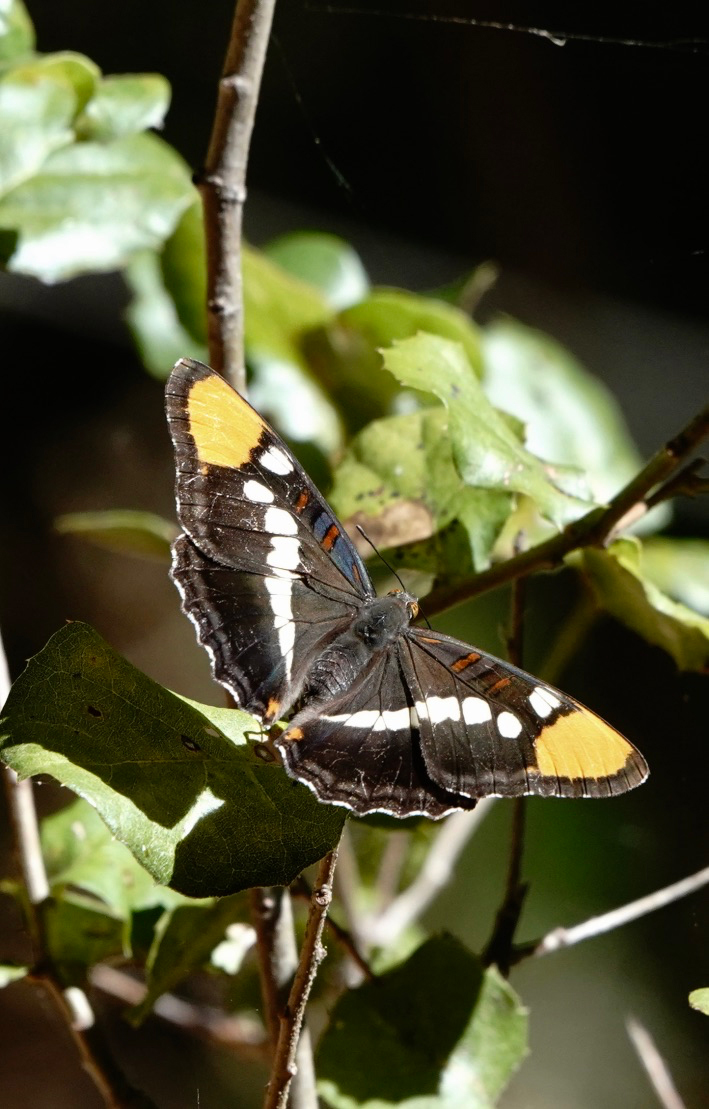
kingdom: Animalia
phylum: Arthropoda
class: Insecta
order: Lepidoptera
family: Nymphalidae
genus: Limenitis
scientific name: Limenitis bredowii
